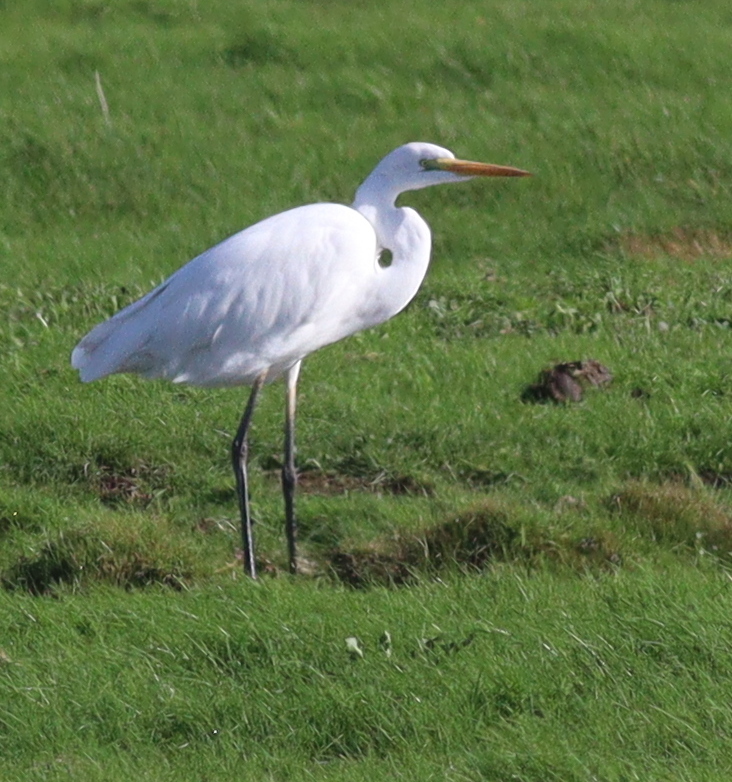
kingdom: Animalia
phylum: Chordata
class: Aves
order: Pelecaniformes
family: Ardeidae
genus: Ardea
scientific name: Ardea alba
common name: Great egret
